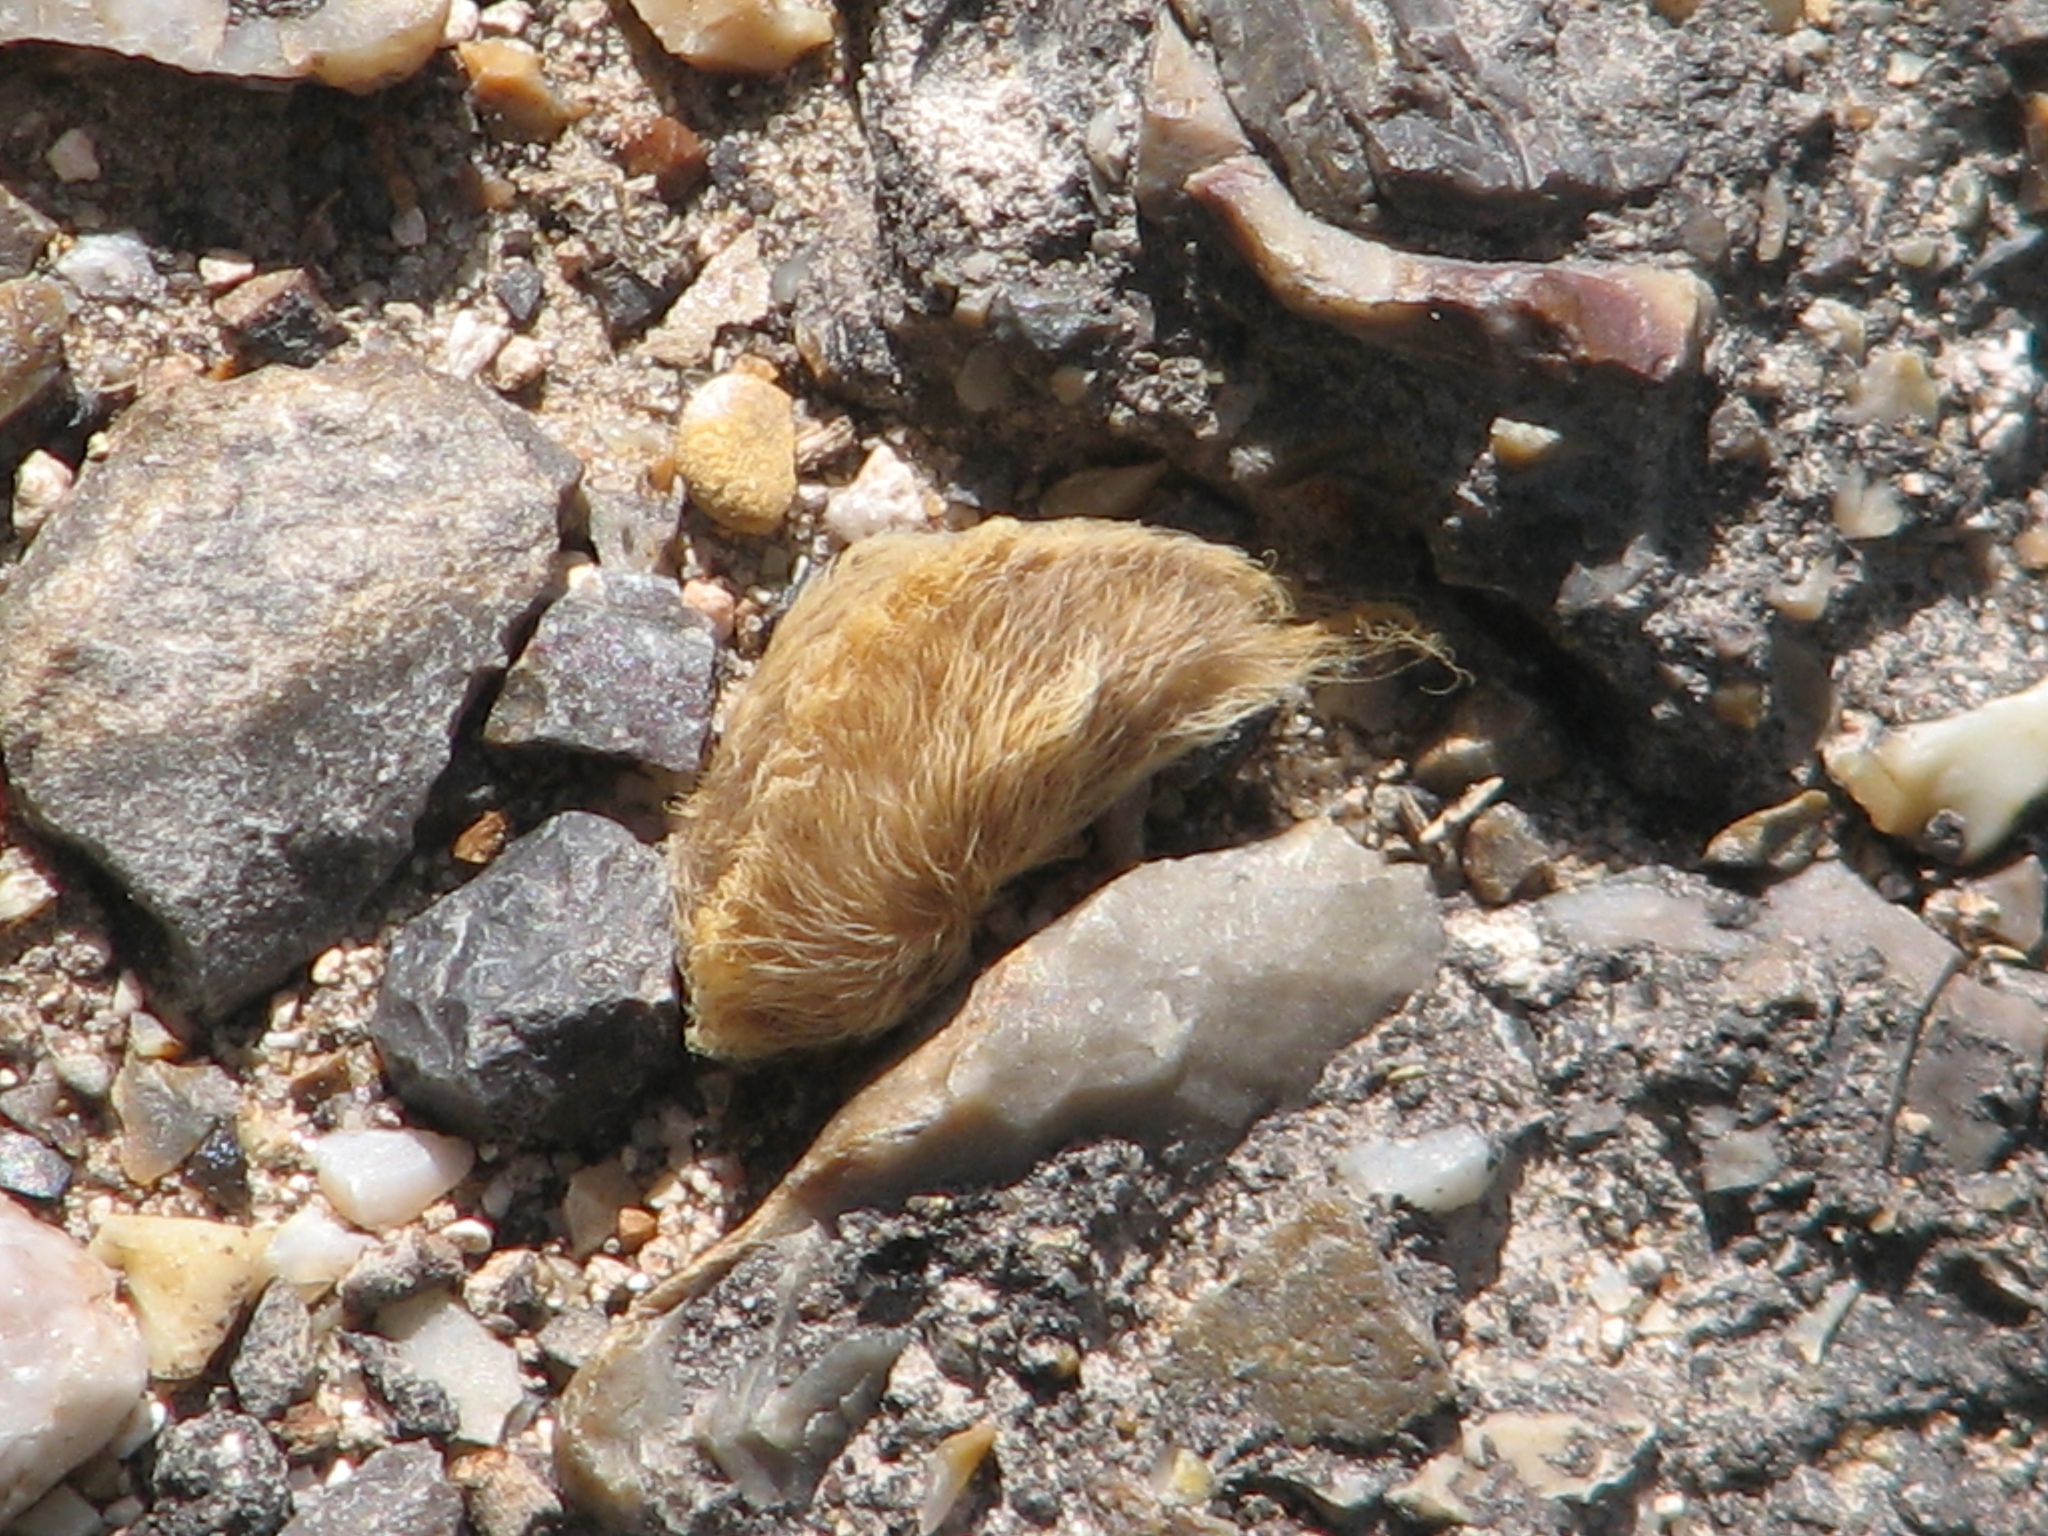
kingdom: Animalia
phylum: Arthropoda
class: Insecta
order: Lepidoptera
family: Megalopygidae
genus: Megalopyge
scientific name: Megalopyge opercularis
